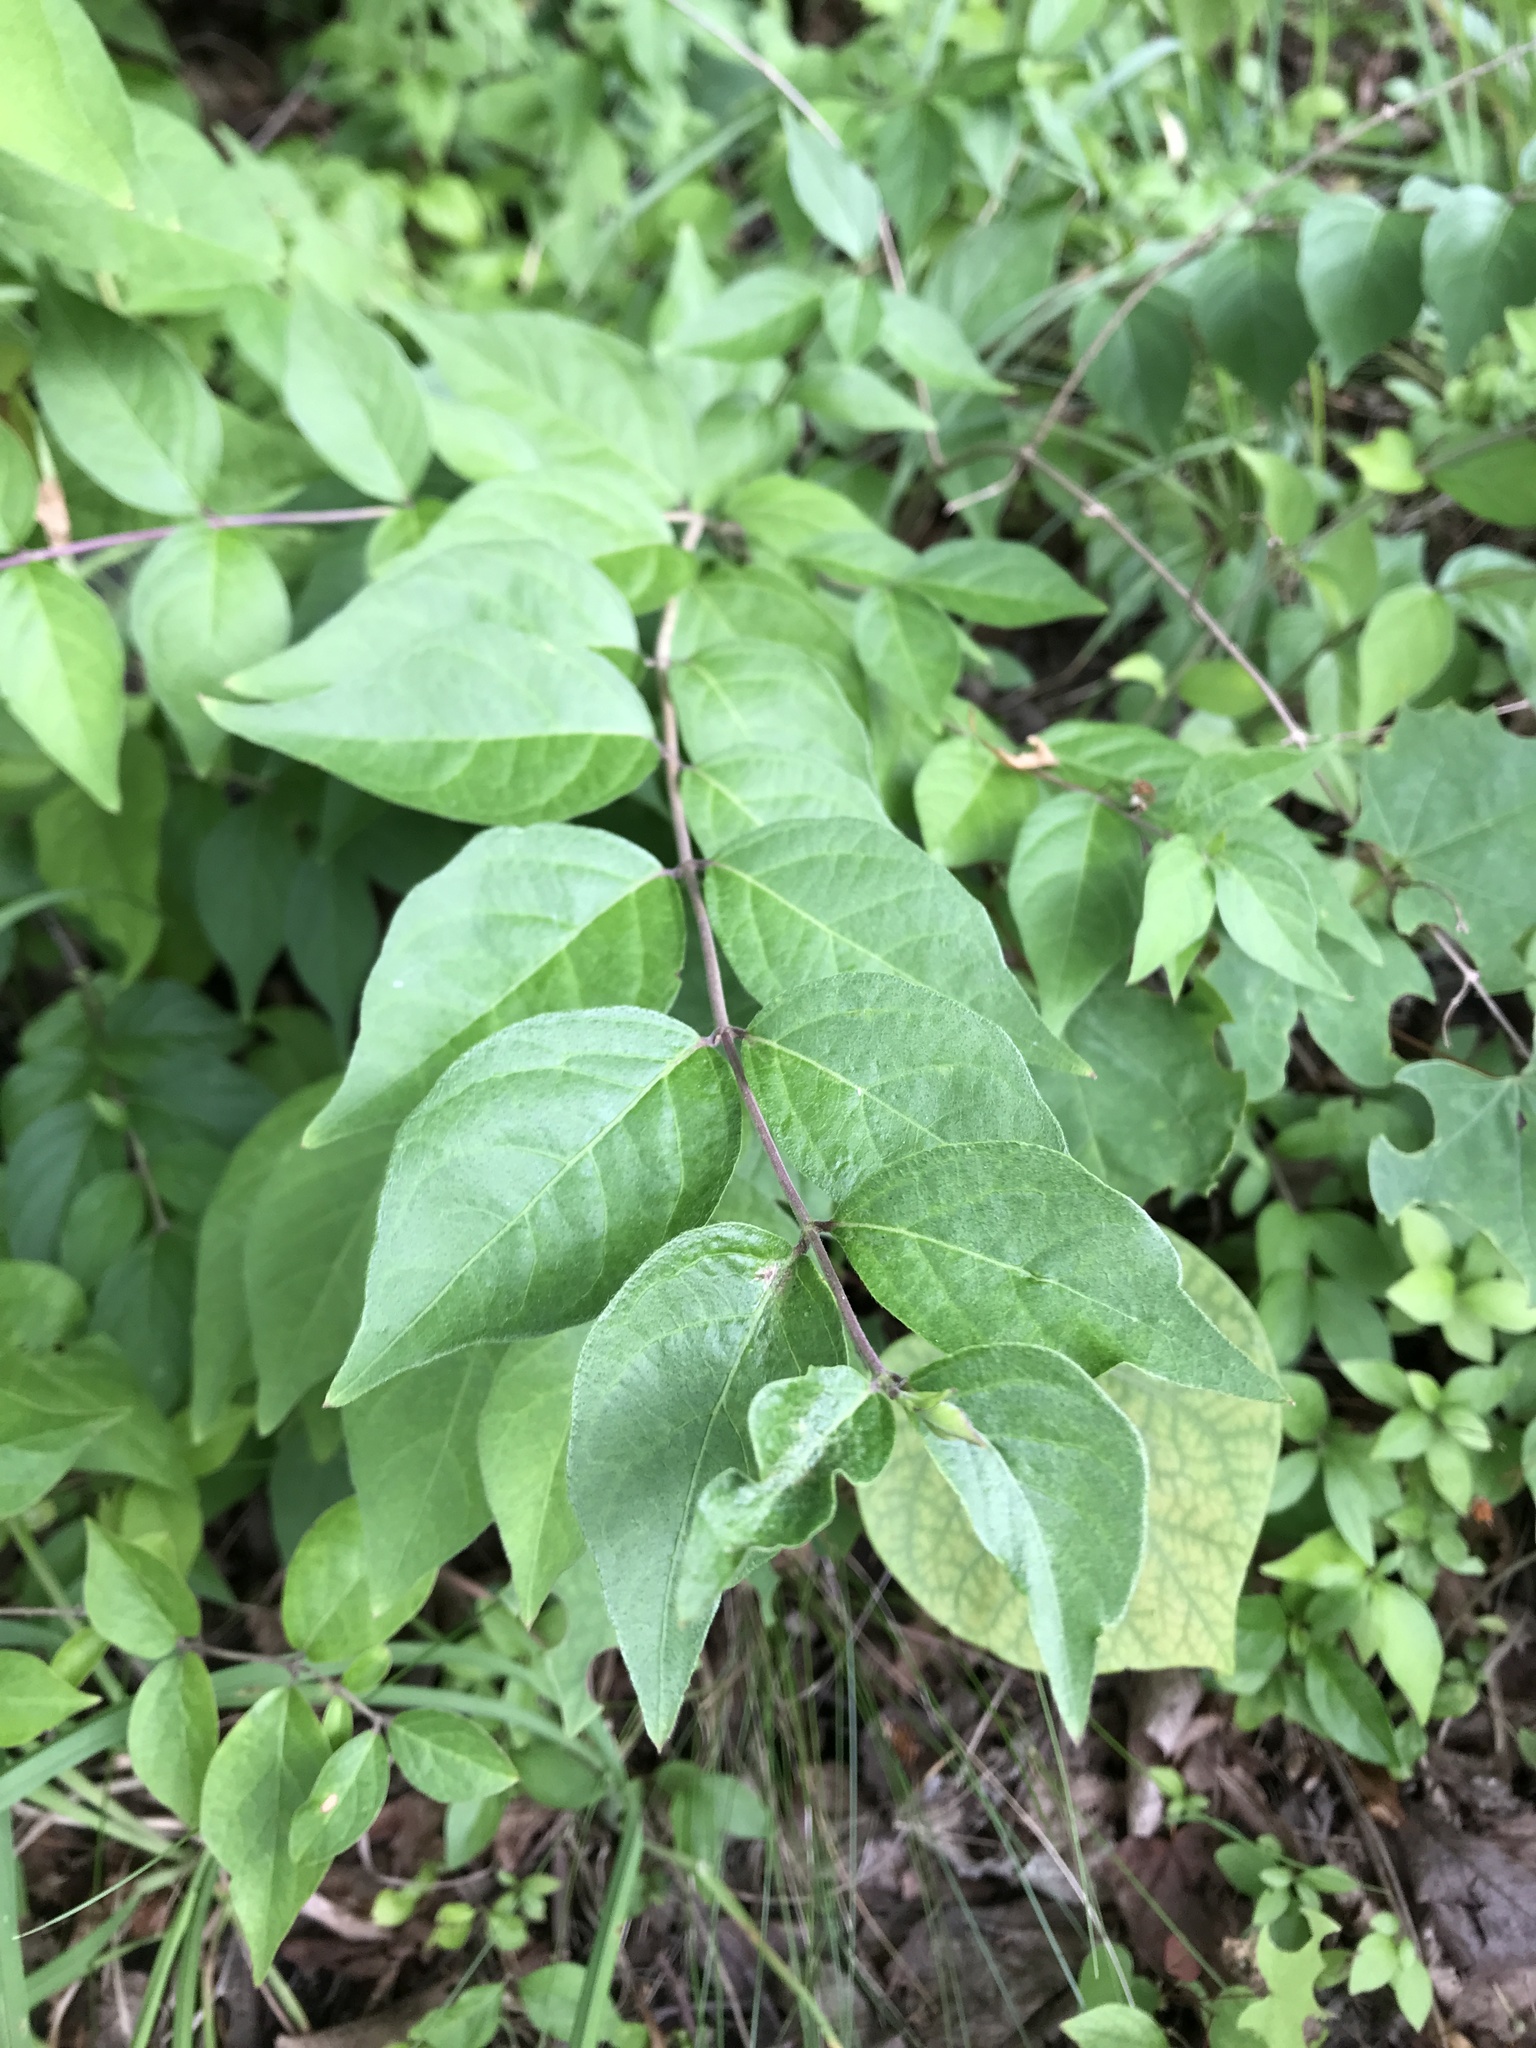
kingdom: Plantae
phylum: Tracheophyta
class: Magnoliopsida
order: Dipsacales
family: Caprifoliaceae
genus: Lonicera
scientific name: Lonicera maackii
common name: Amur honeysuckle
